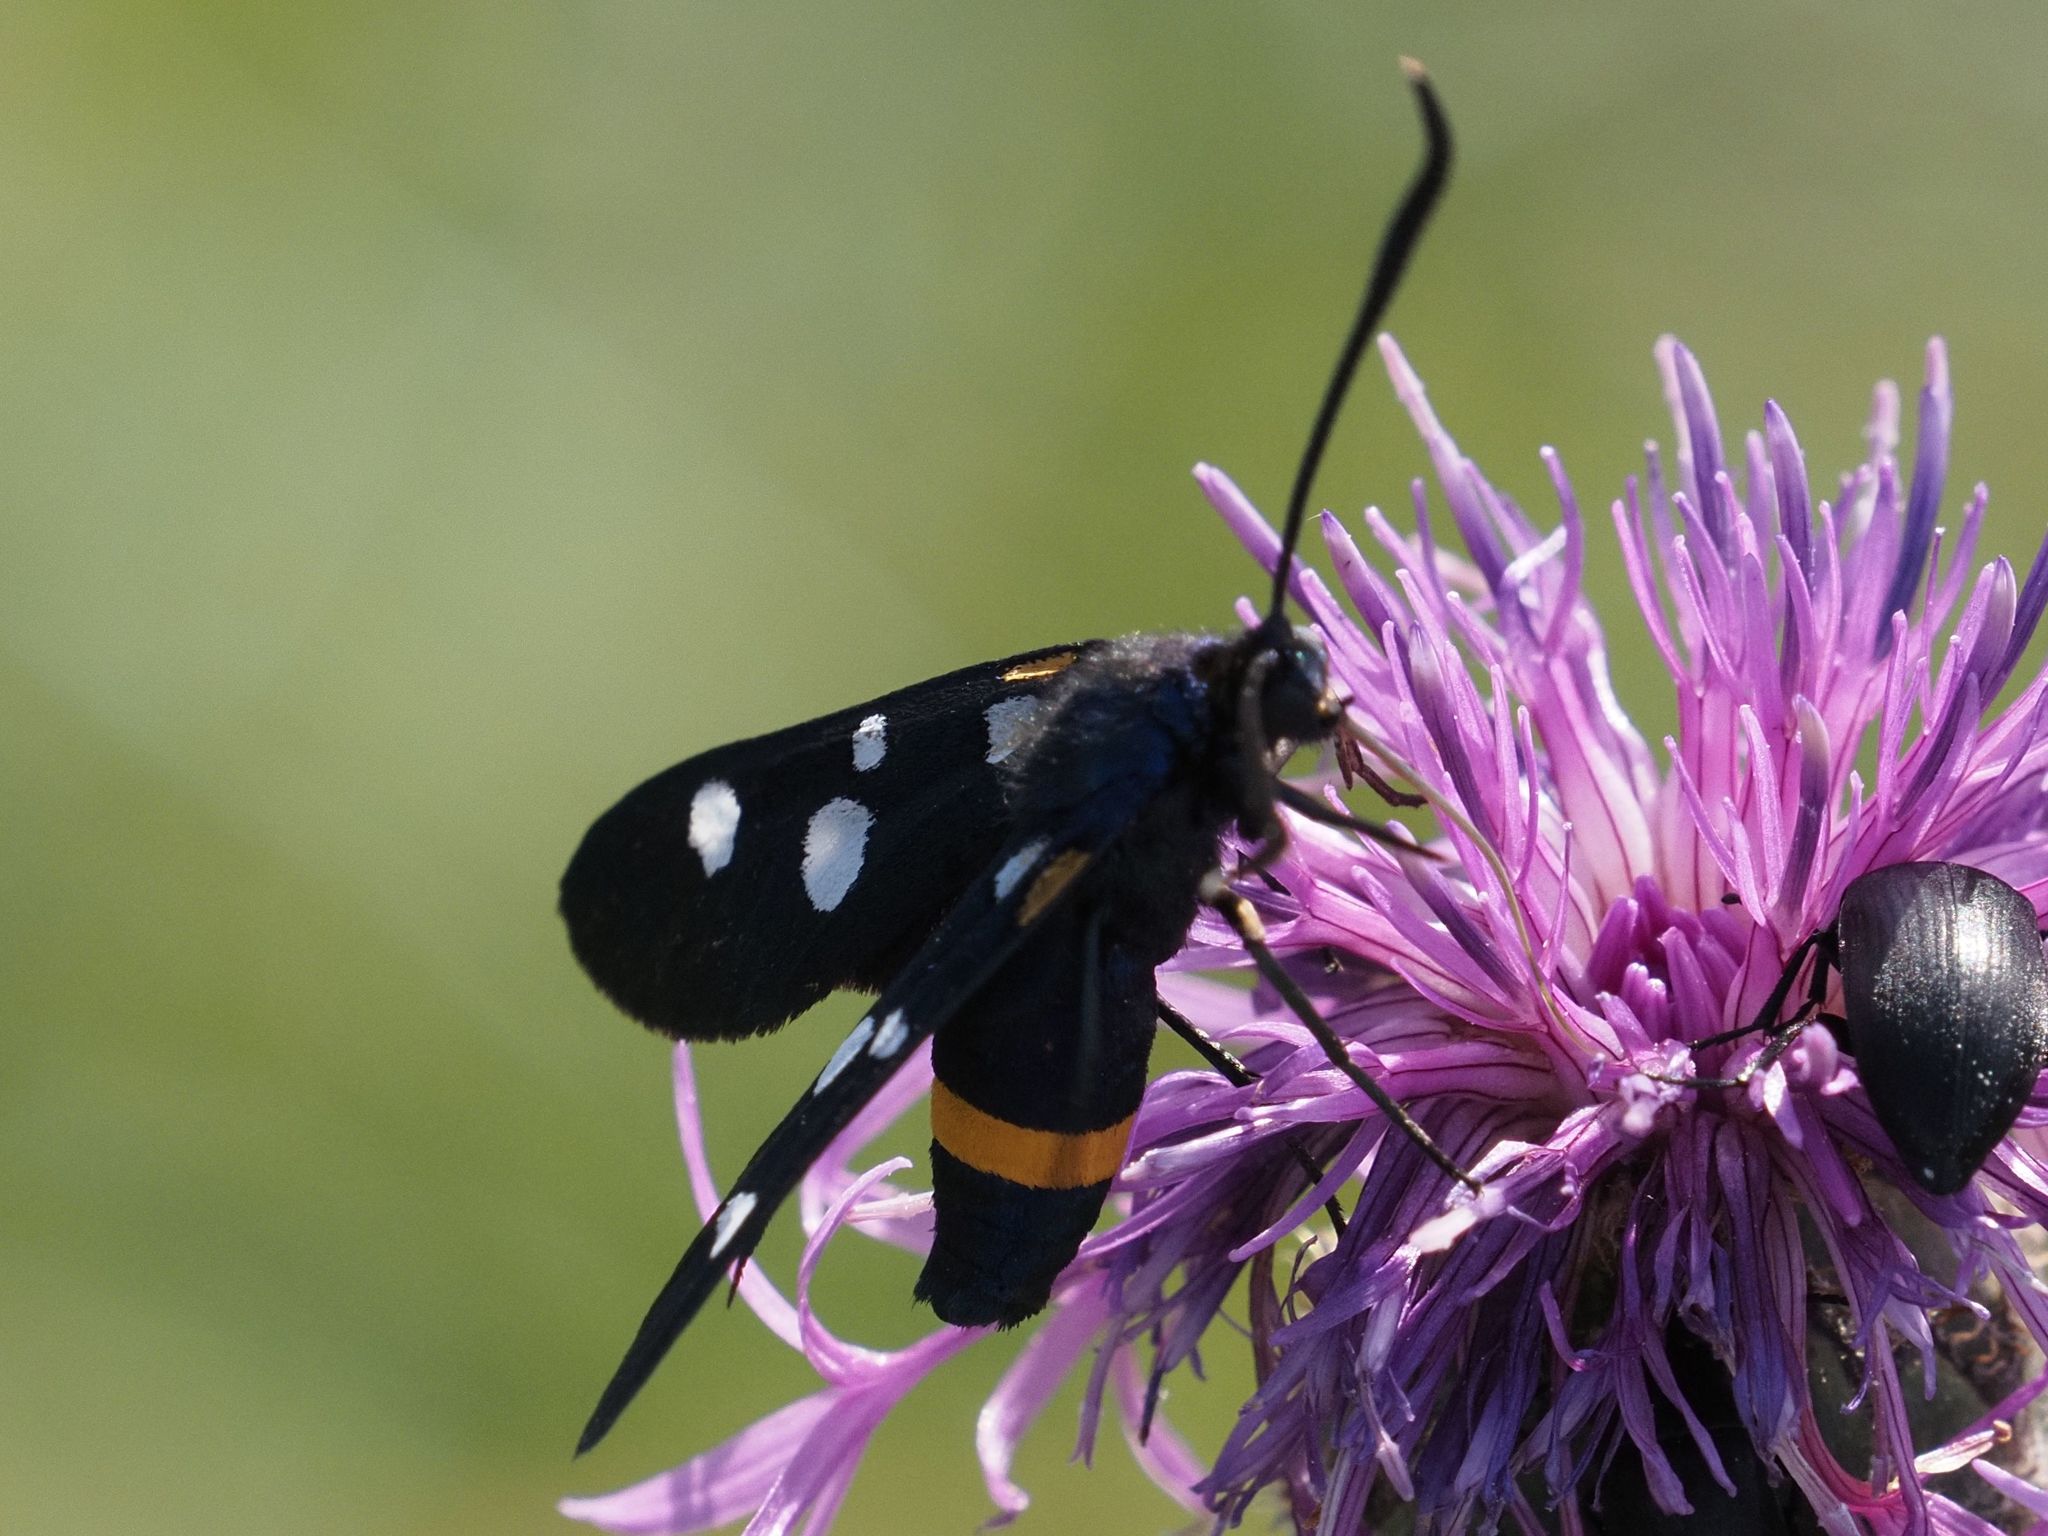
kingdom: Animalia
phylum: Arthropoda
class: Insecta
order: Lepidoptera
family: Zygaenidae
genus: Zygaena
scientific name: Zygaena ephialtes
